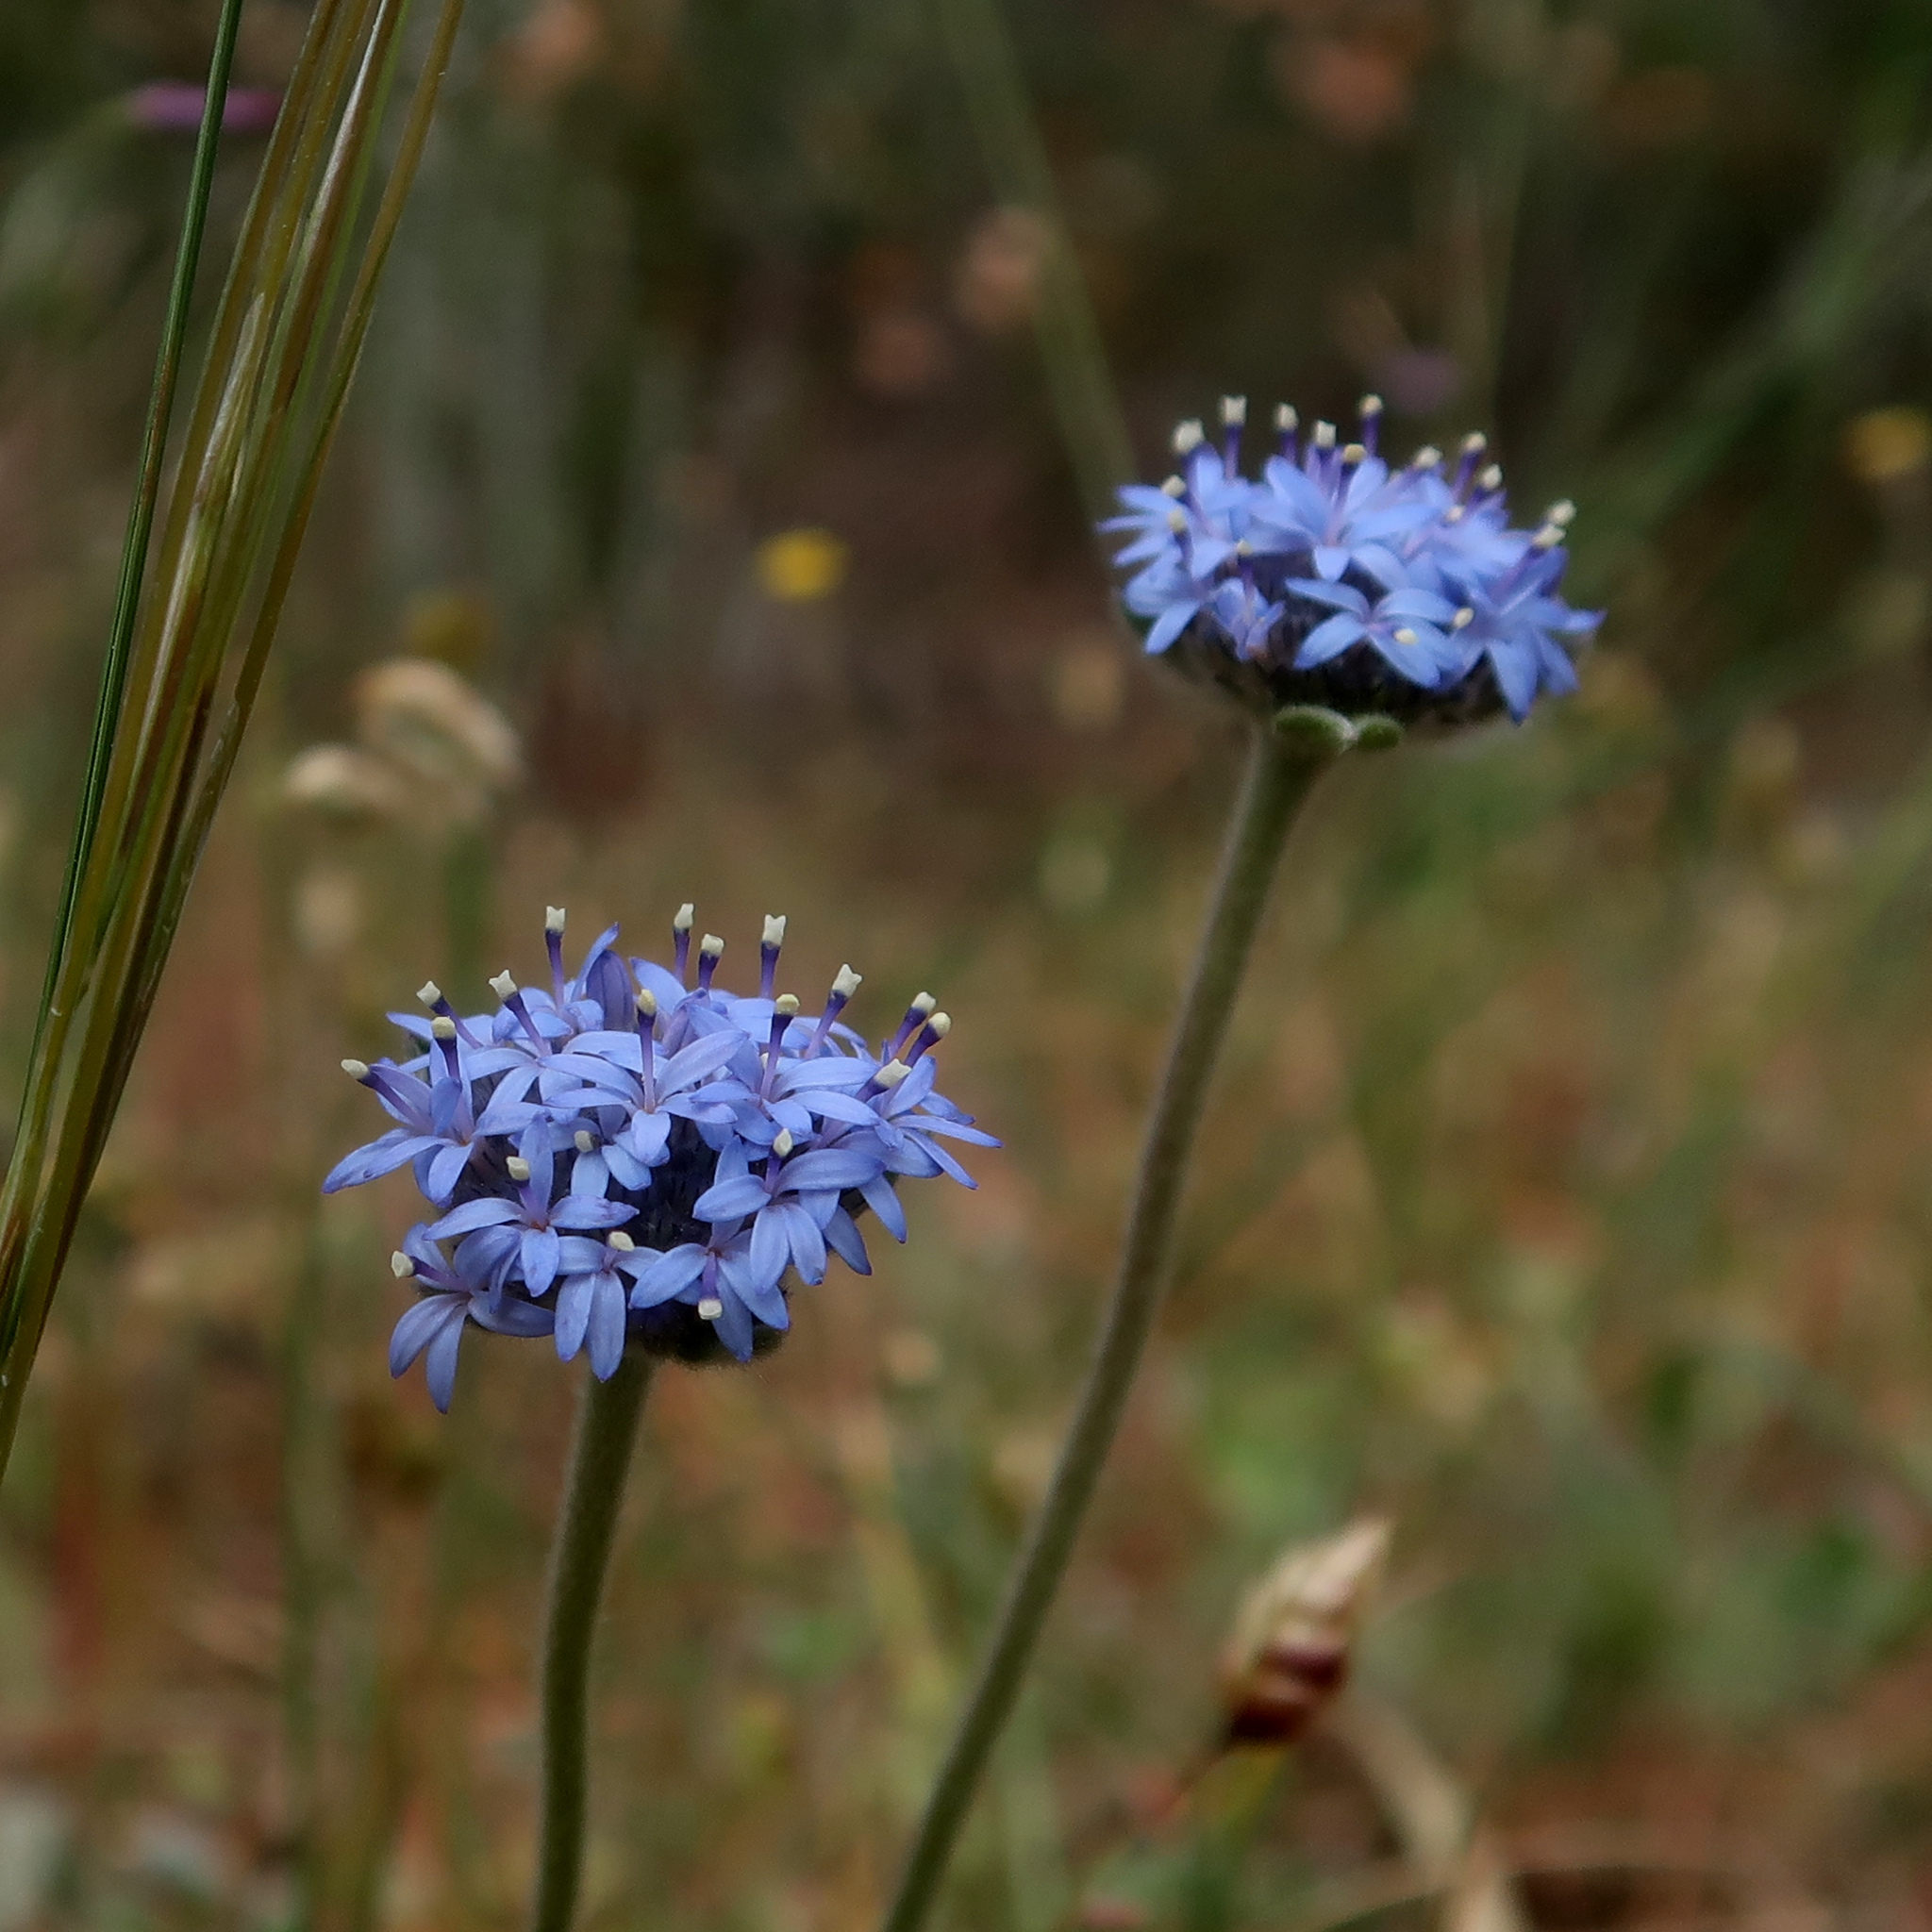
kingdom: Plantae
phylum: Tracheophyta
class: Magnoliopsida
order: Asterales
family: Goodeniaceae
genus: Brunonia
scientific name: Brunonia australis
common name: Blue pincushion
